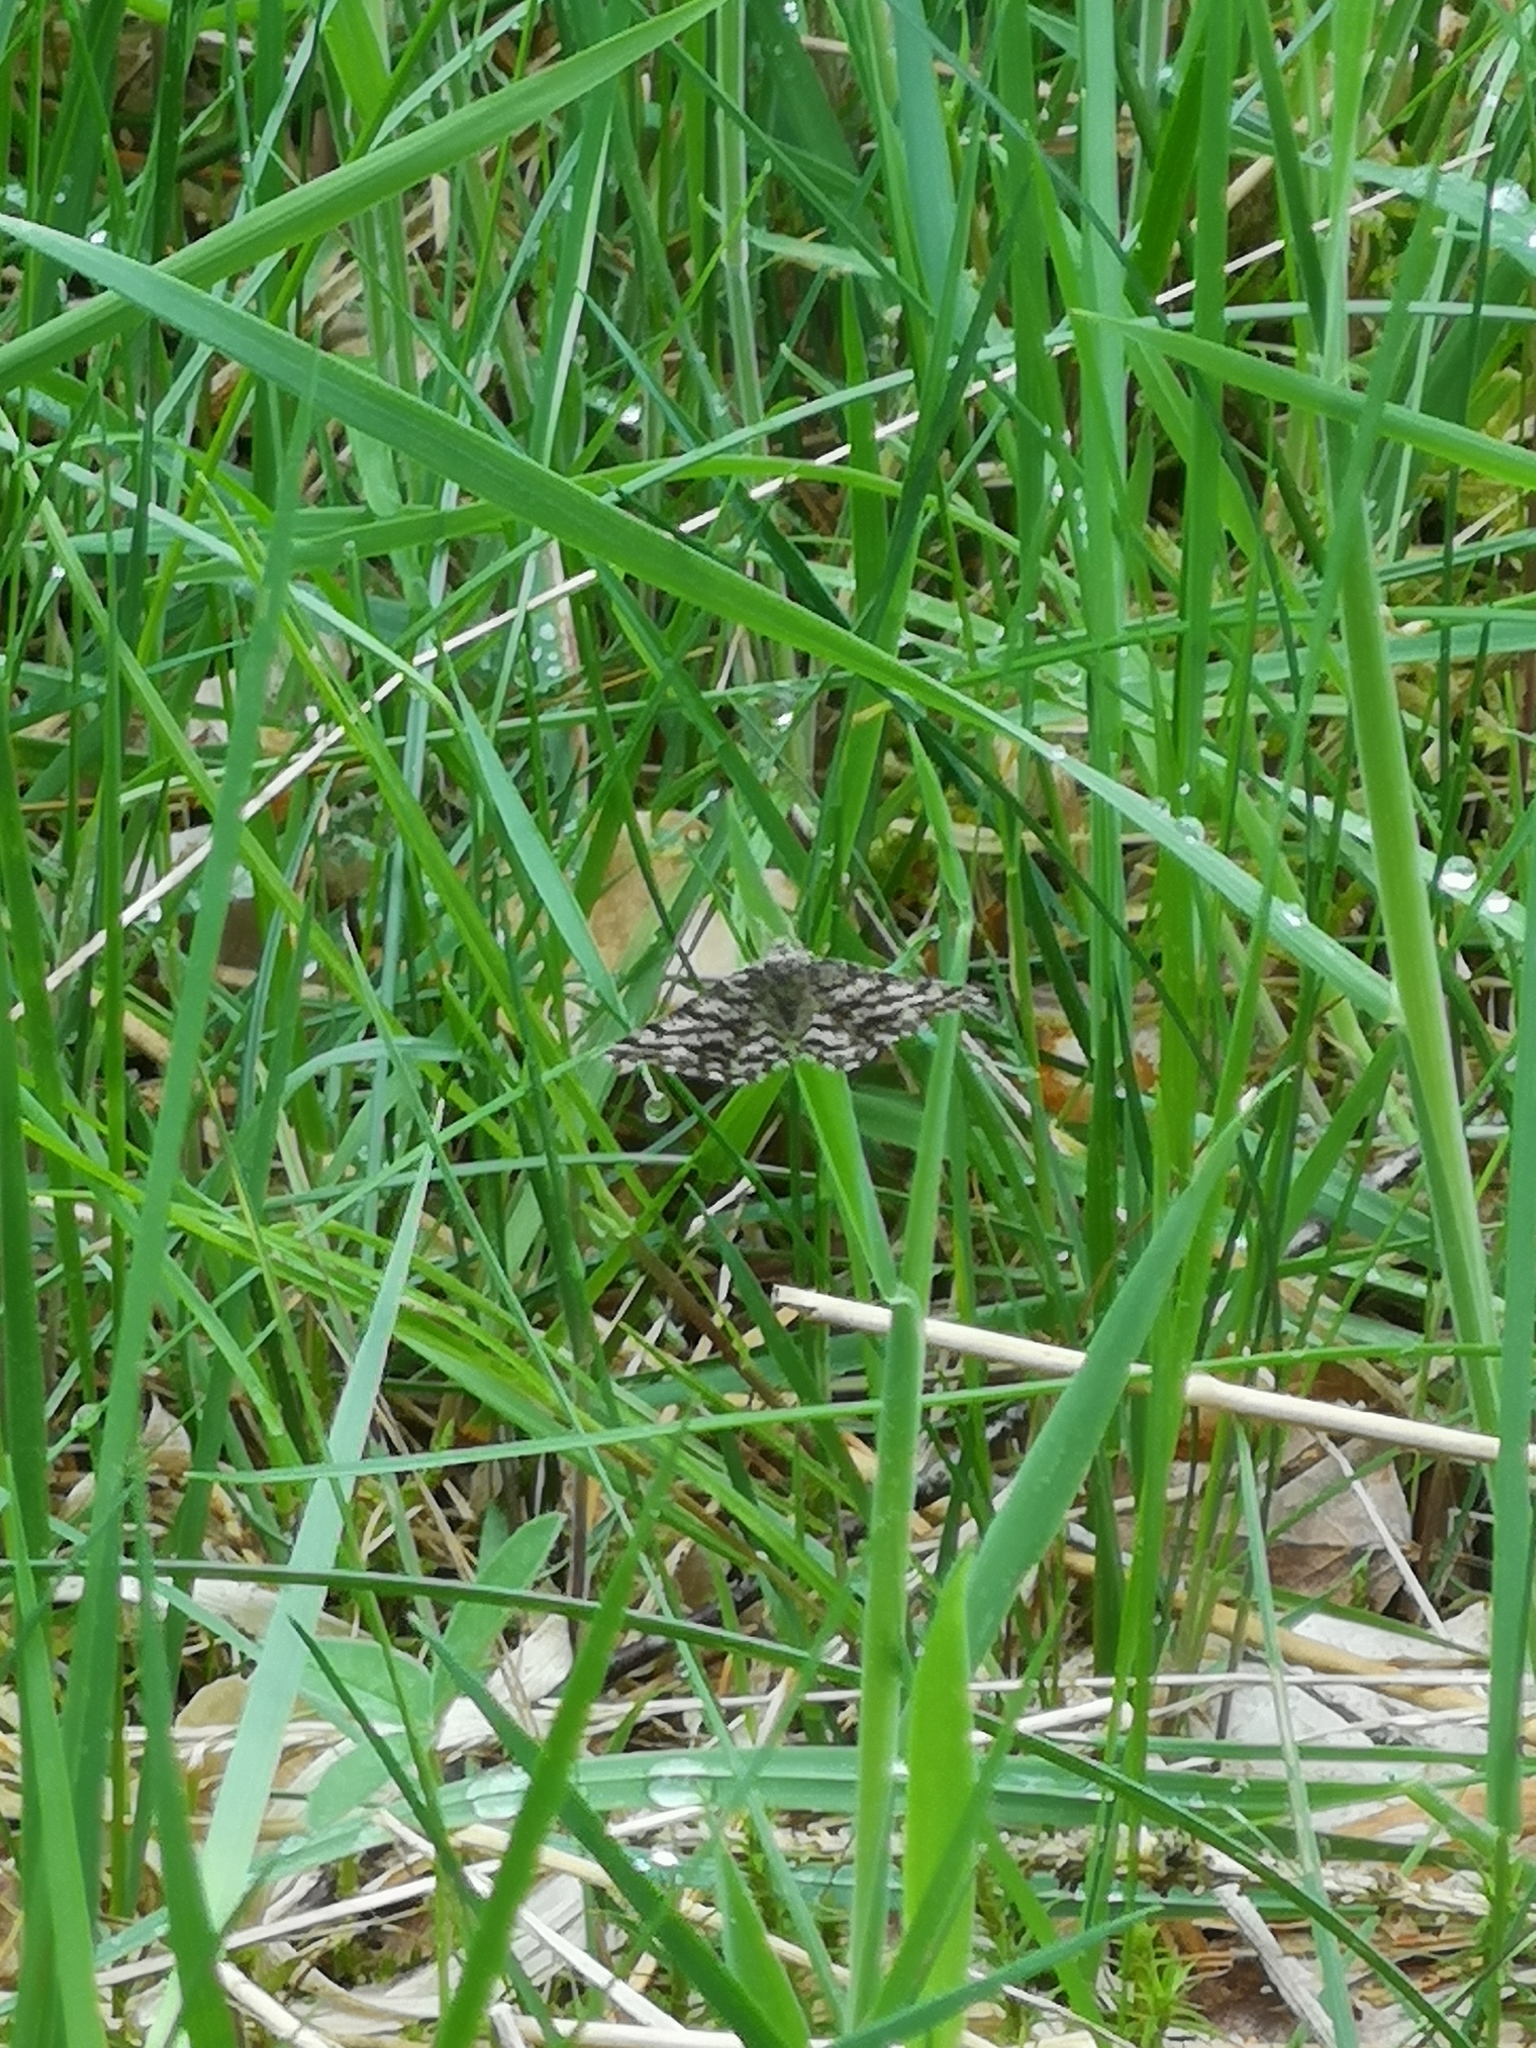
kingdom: Animalia
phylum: Arthropoda
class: Insecta
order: Lepidoptera
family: Geometridae
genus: Ematurga
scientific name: Ematurga atomaria
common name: Common heath
